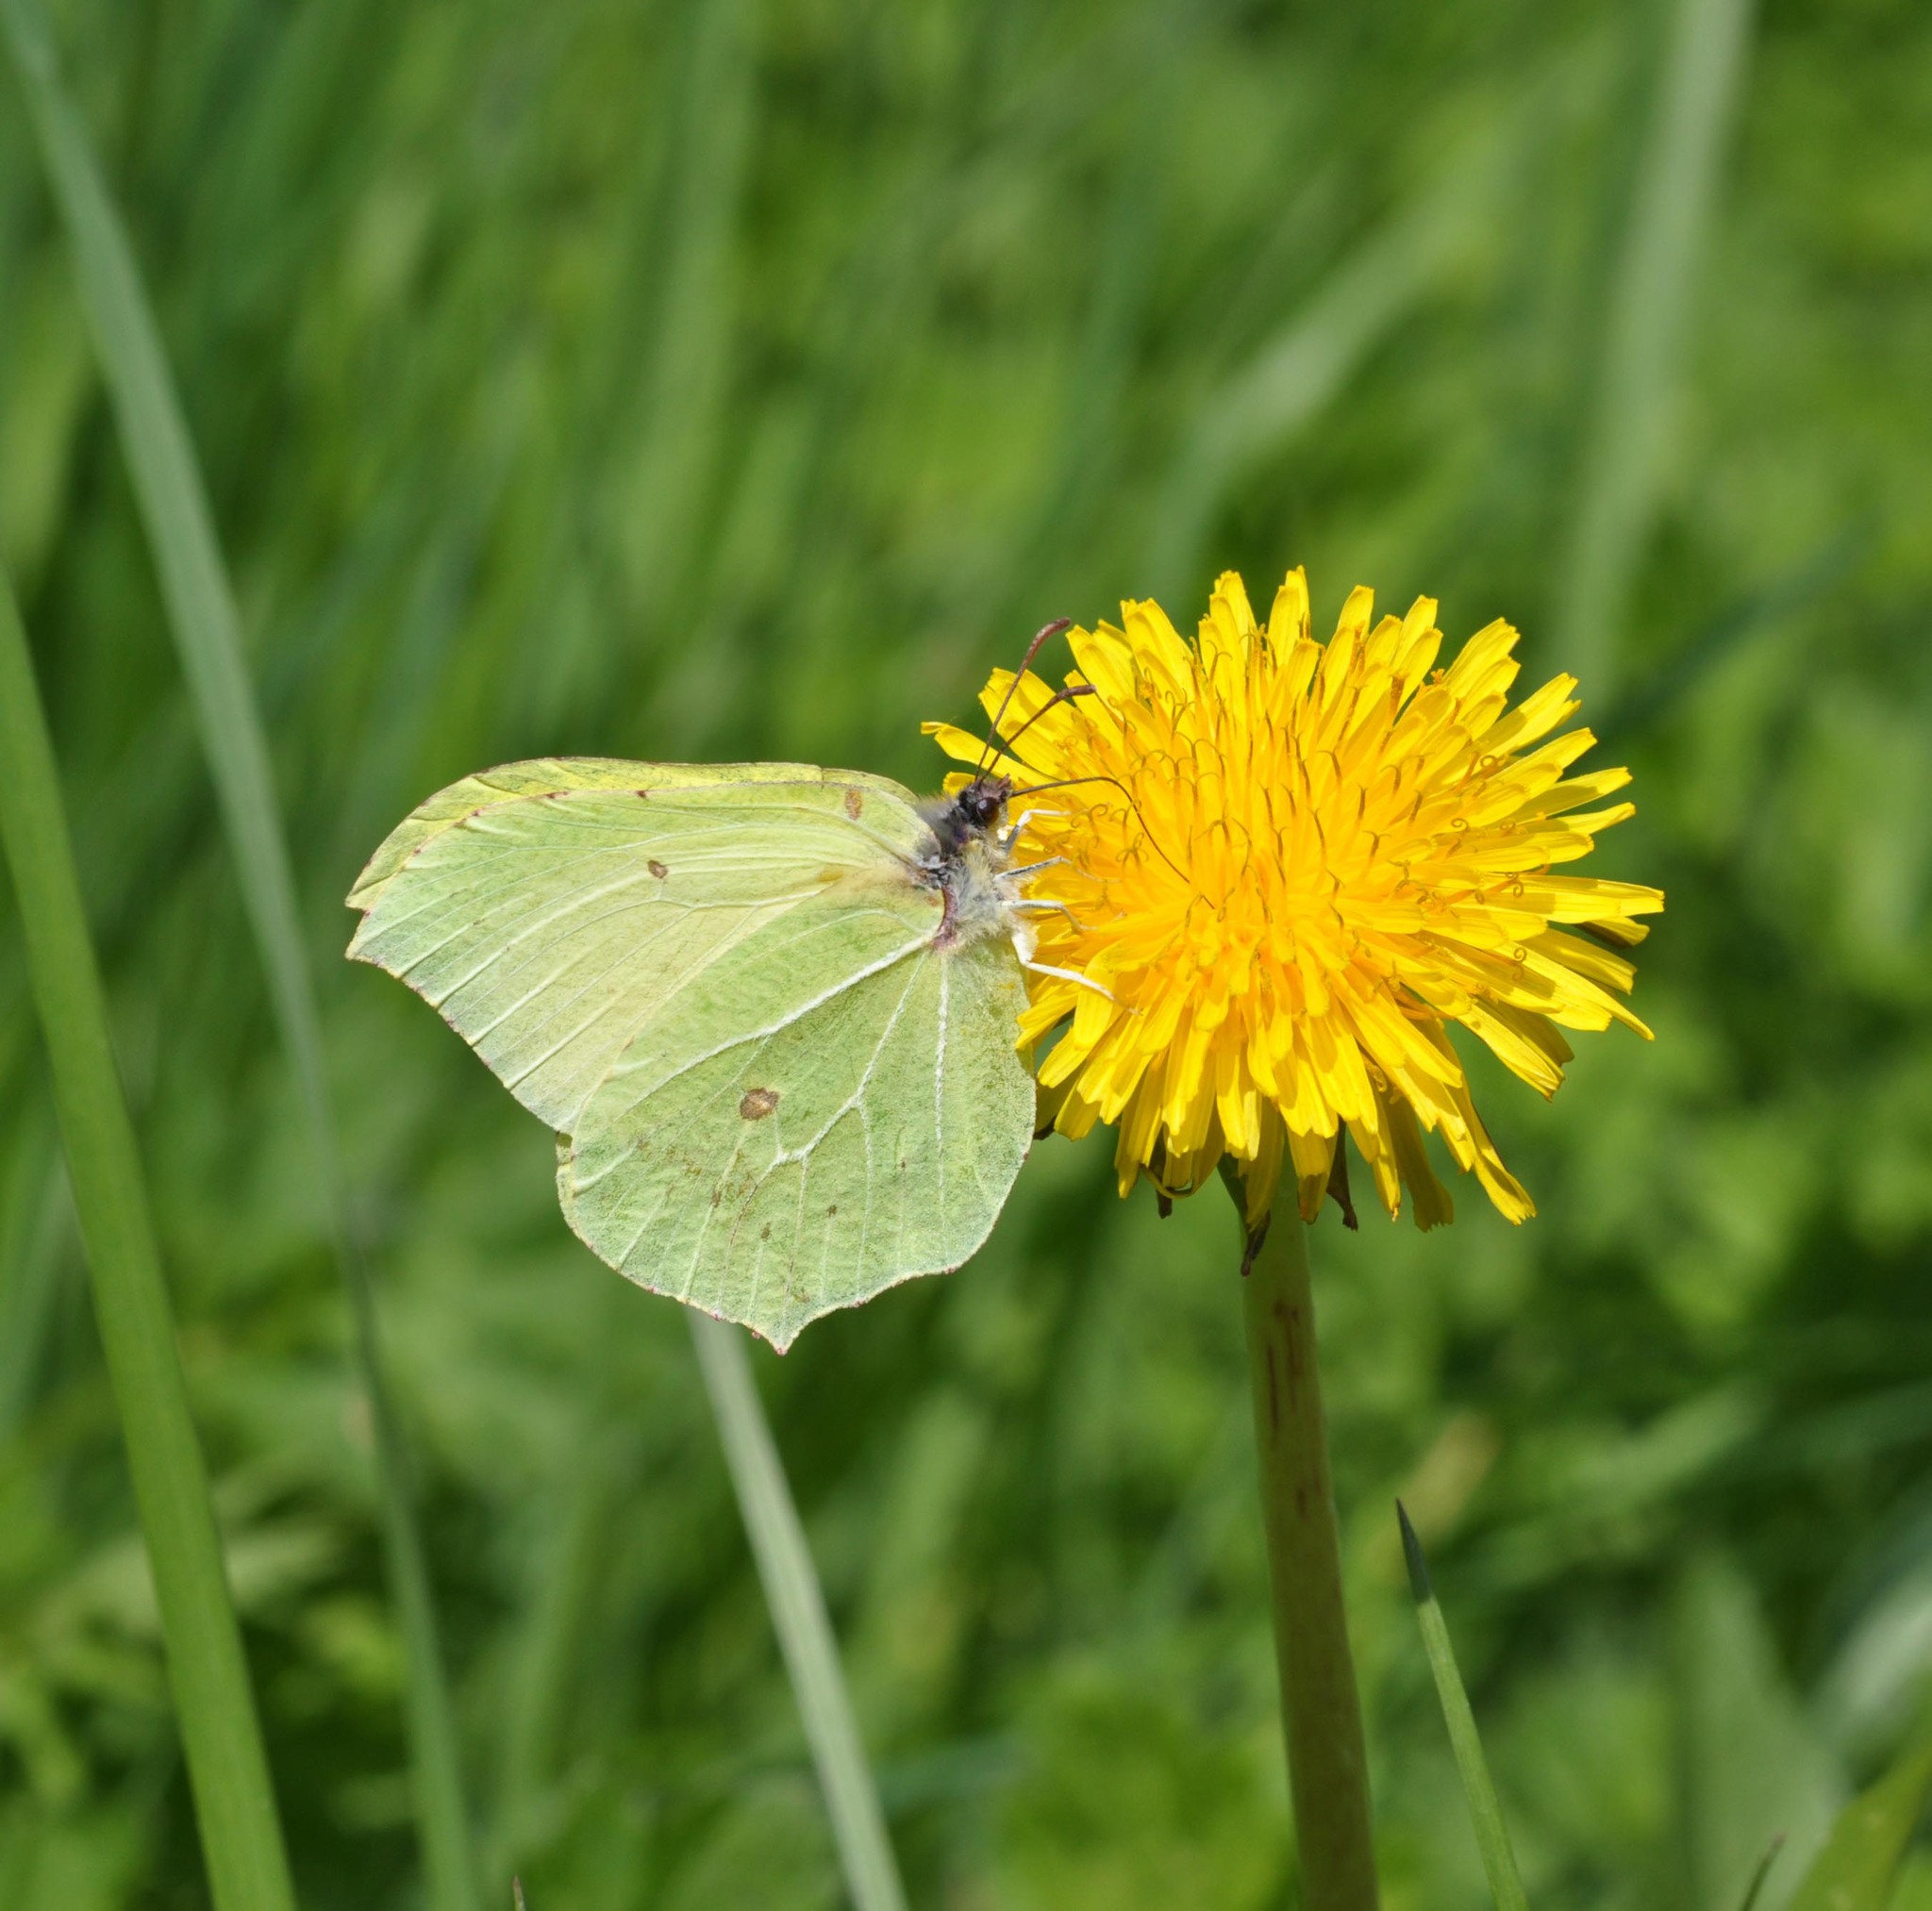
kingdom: Animalia
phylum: Arthropoda
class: Insecta
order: Lepidoptera
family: Pieridae
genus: Gonepteryx
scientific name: Gonepteryx rhamni
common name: Brimstone
